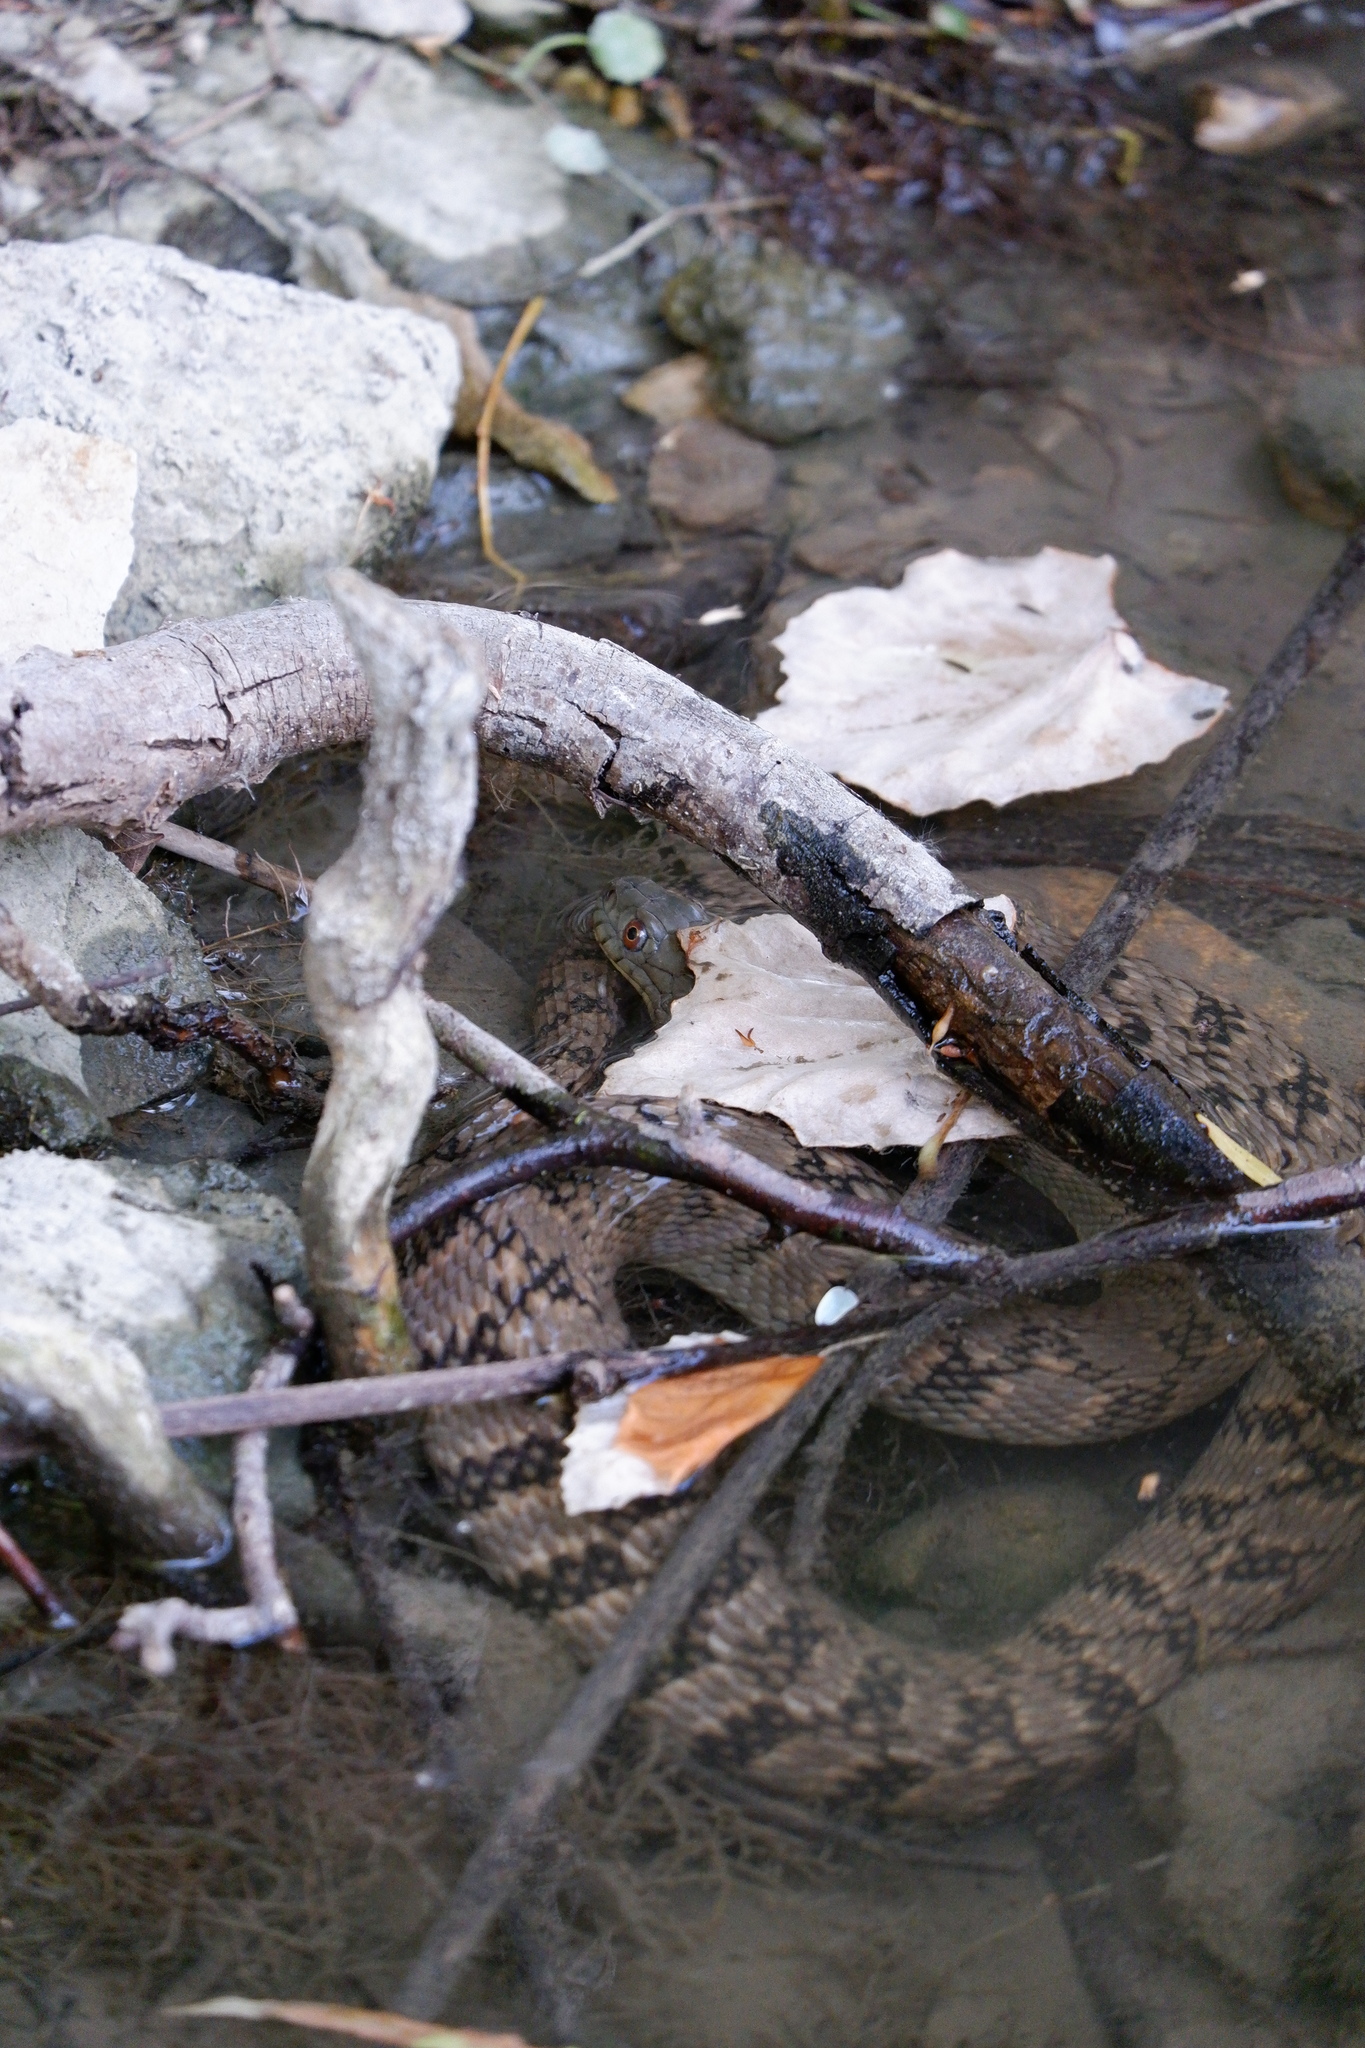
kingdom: Animalia
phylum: Chordata
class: Squamata
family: Colubridae
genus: Nerodia
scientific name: Nerodia rhombifer
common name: Diamondback water snake
